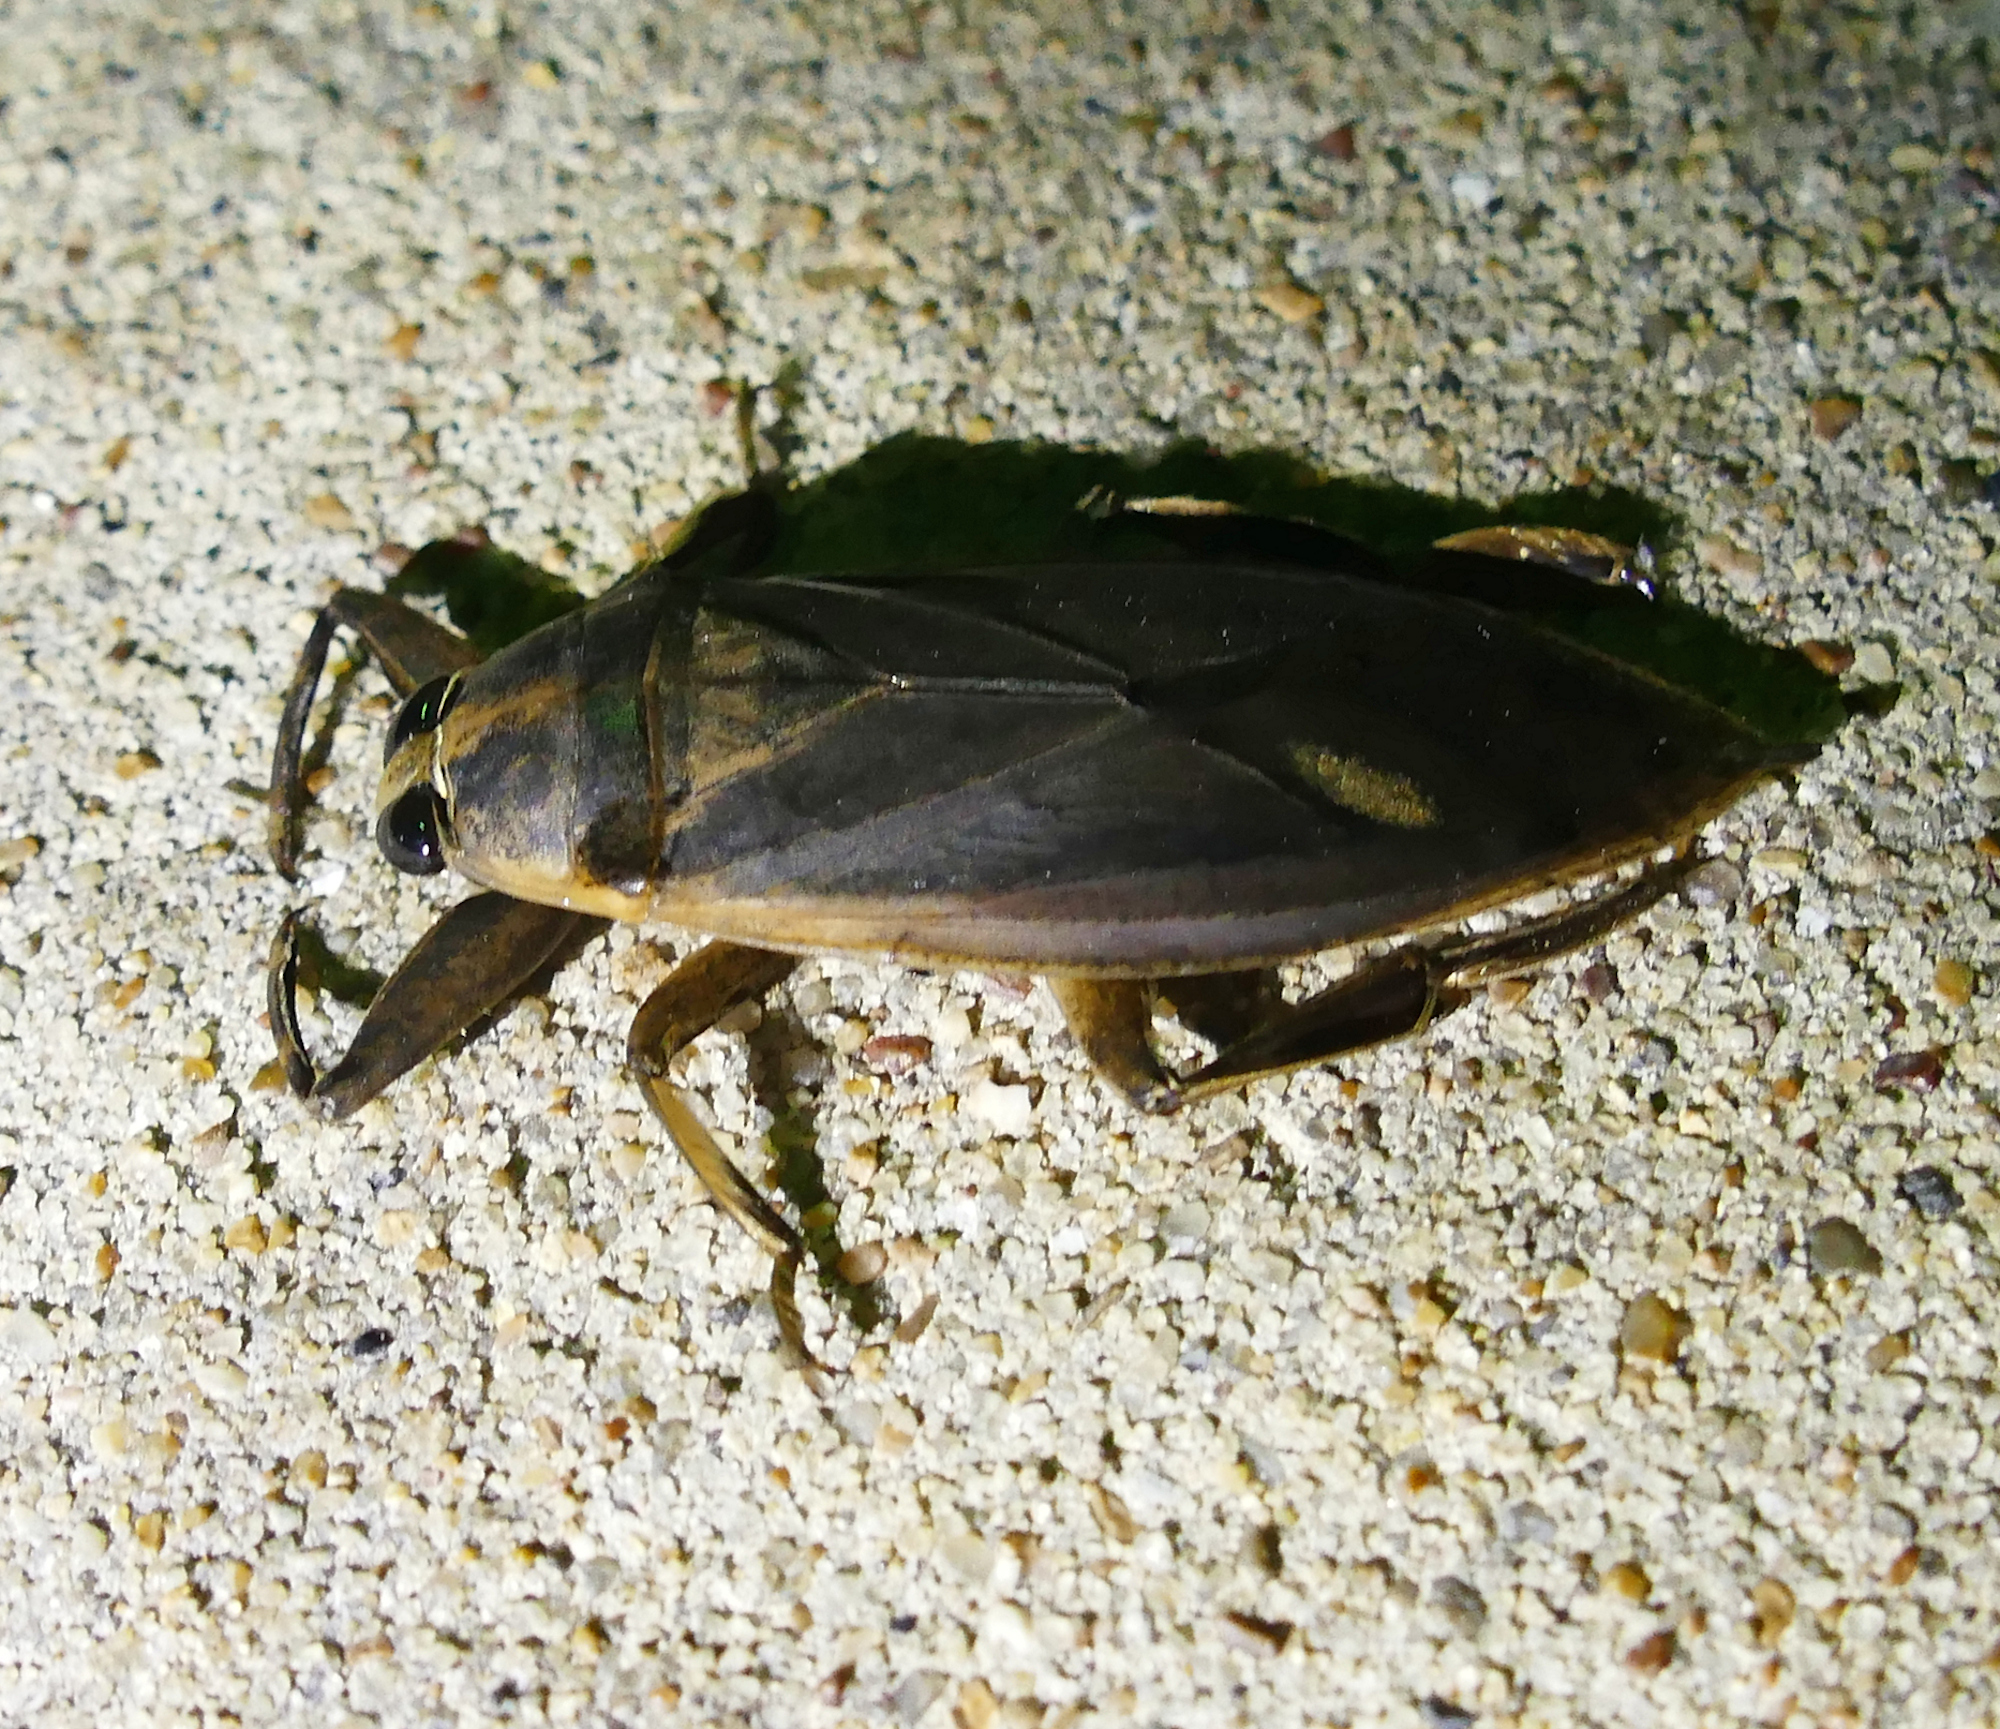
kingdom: Animalia
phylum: Arthropoda
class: Insecta
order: Hemiptera
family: Belostomatidae
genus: Benacus
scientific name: Benacus griseus
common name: Eastern toe-biter
